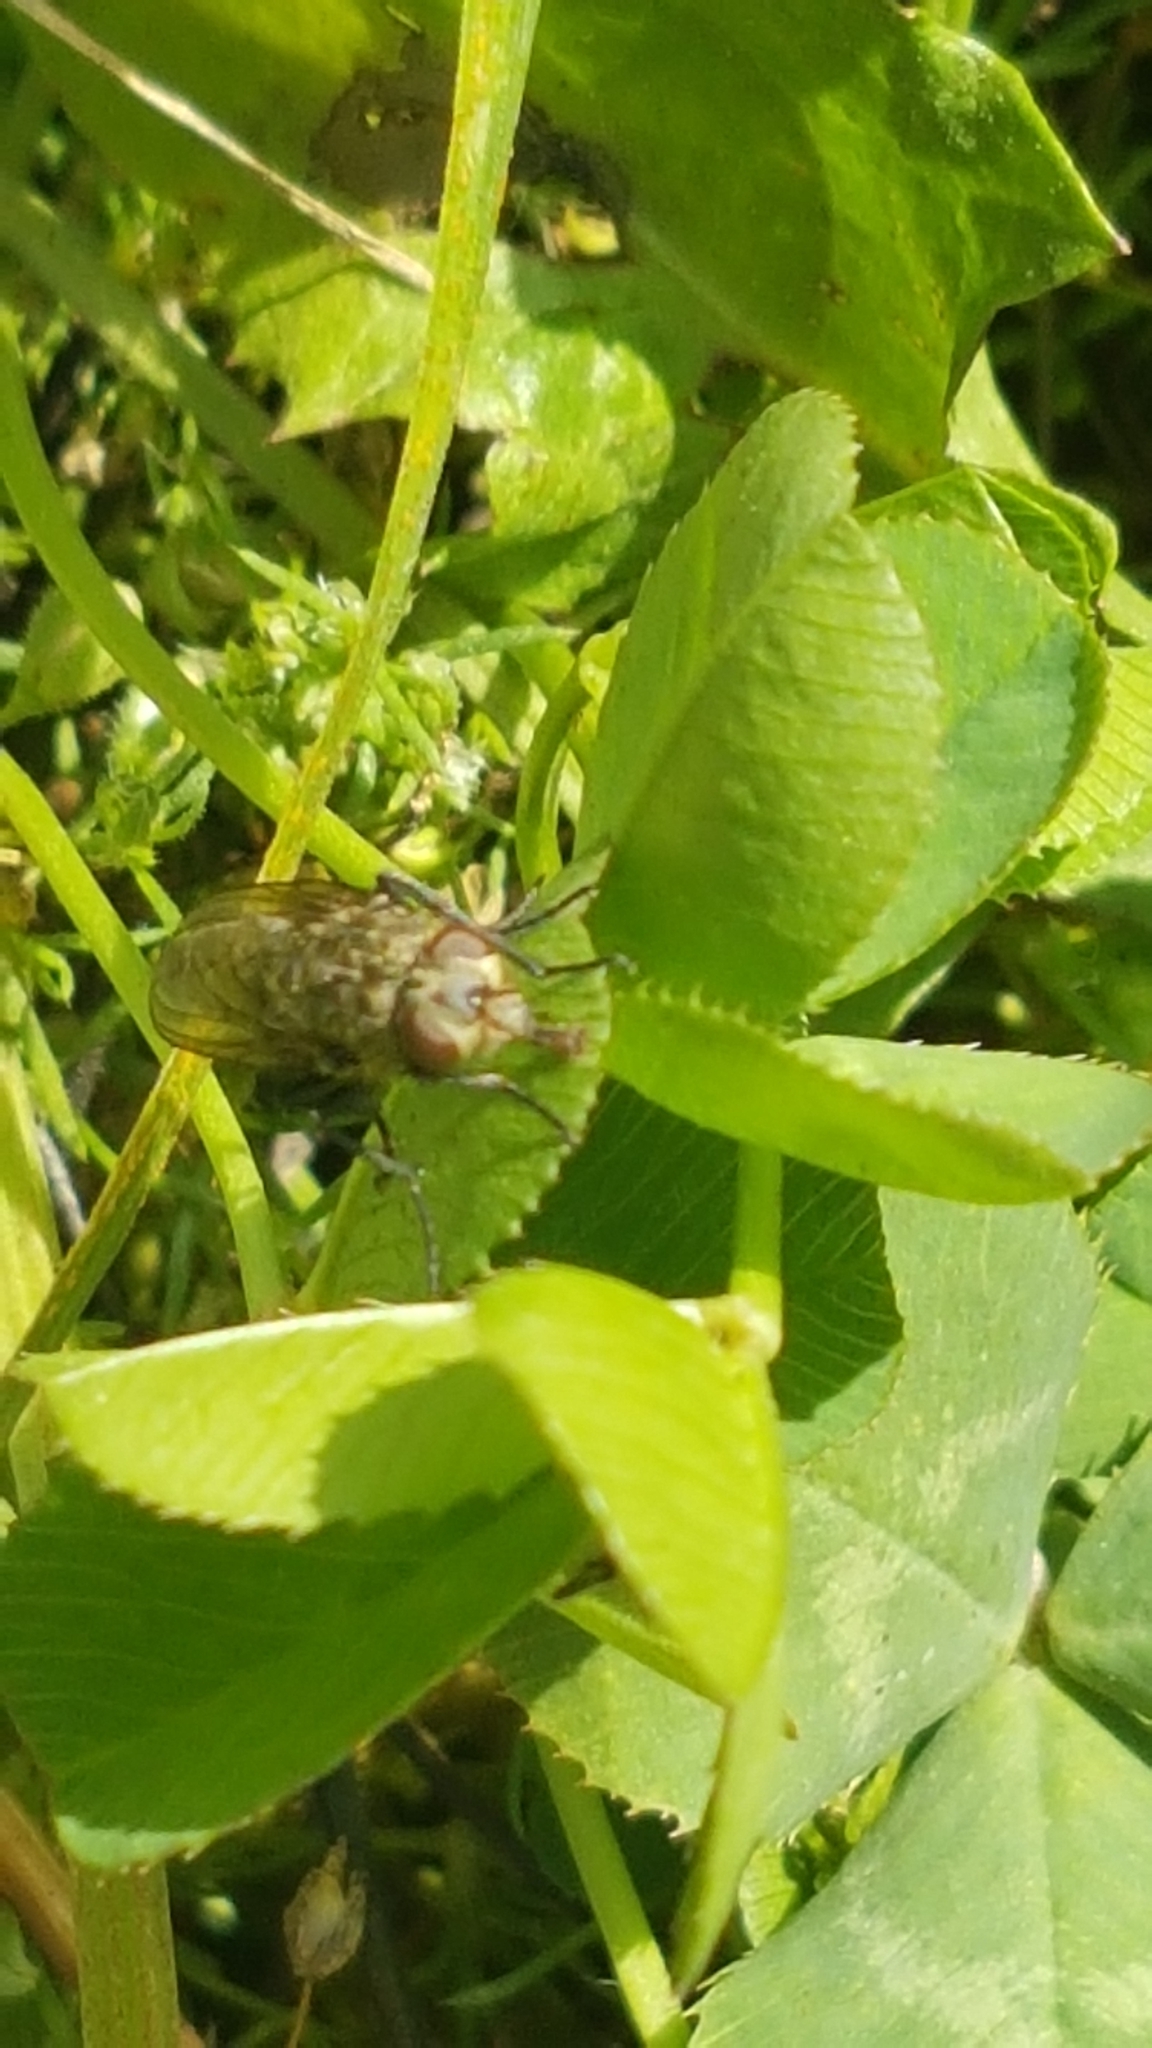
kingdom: Animalia
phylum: Arthropoda
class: Insecta
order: Diptera
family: Polleniidae
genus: Pollenia
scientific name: Pollenia
